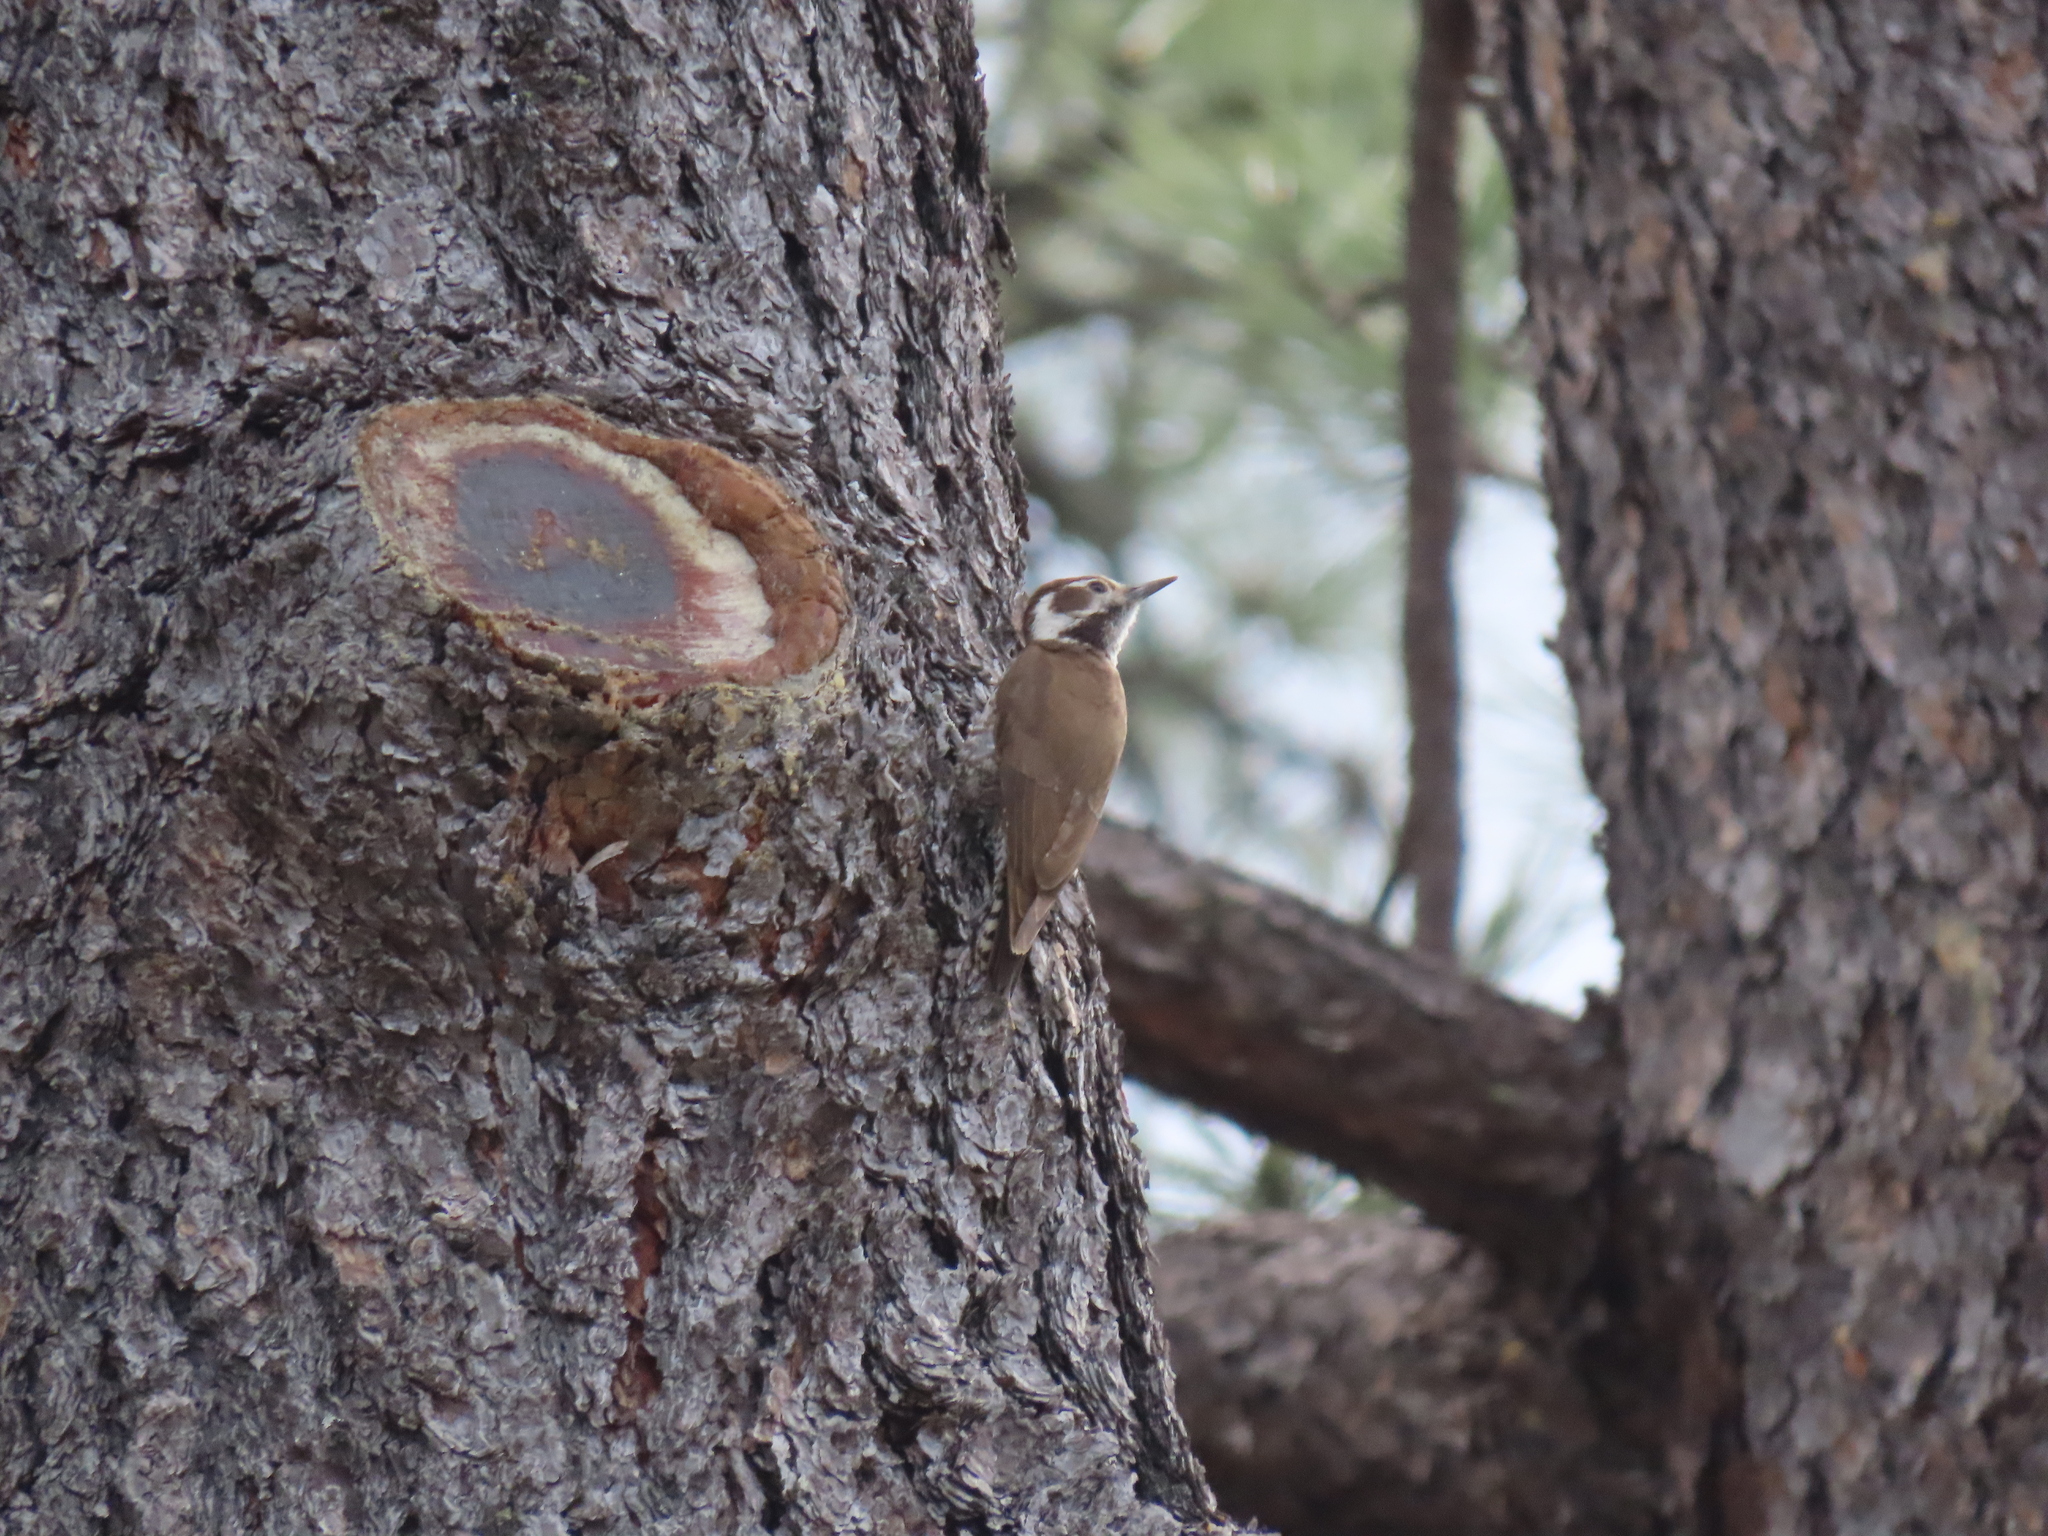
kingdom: Animalia
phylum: Chordata
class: Aves
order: Piciformes
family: Picidae
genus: Leuconotopicus
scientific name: Leuconotopicus arizonae
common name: Arizona woodpecker
